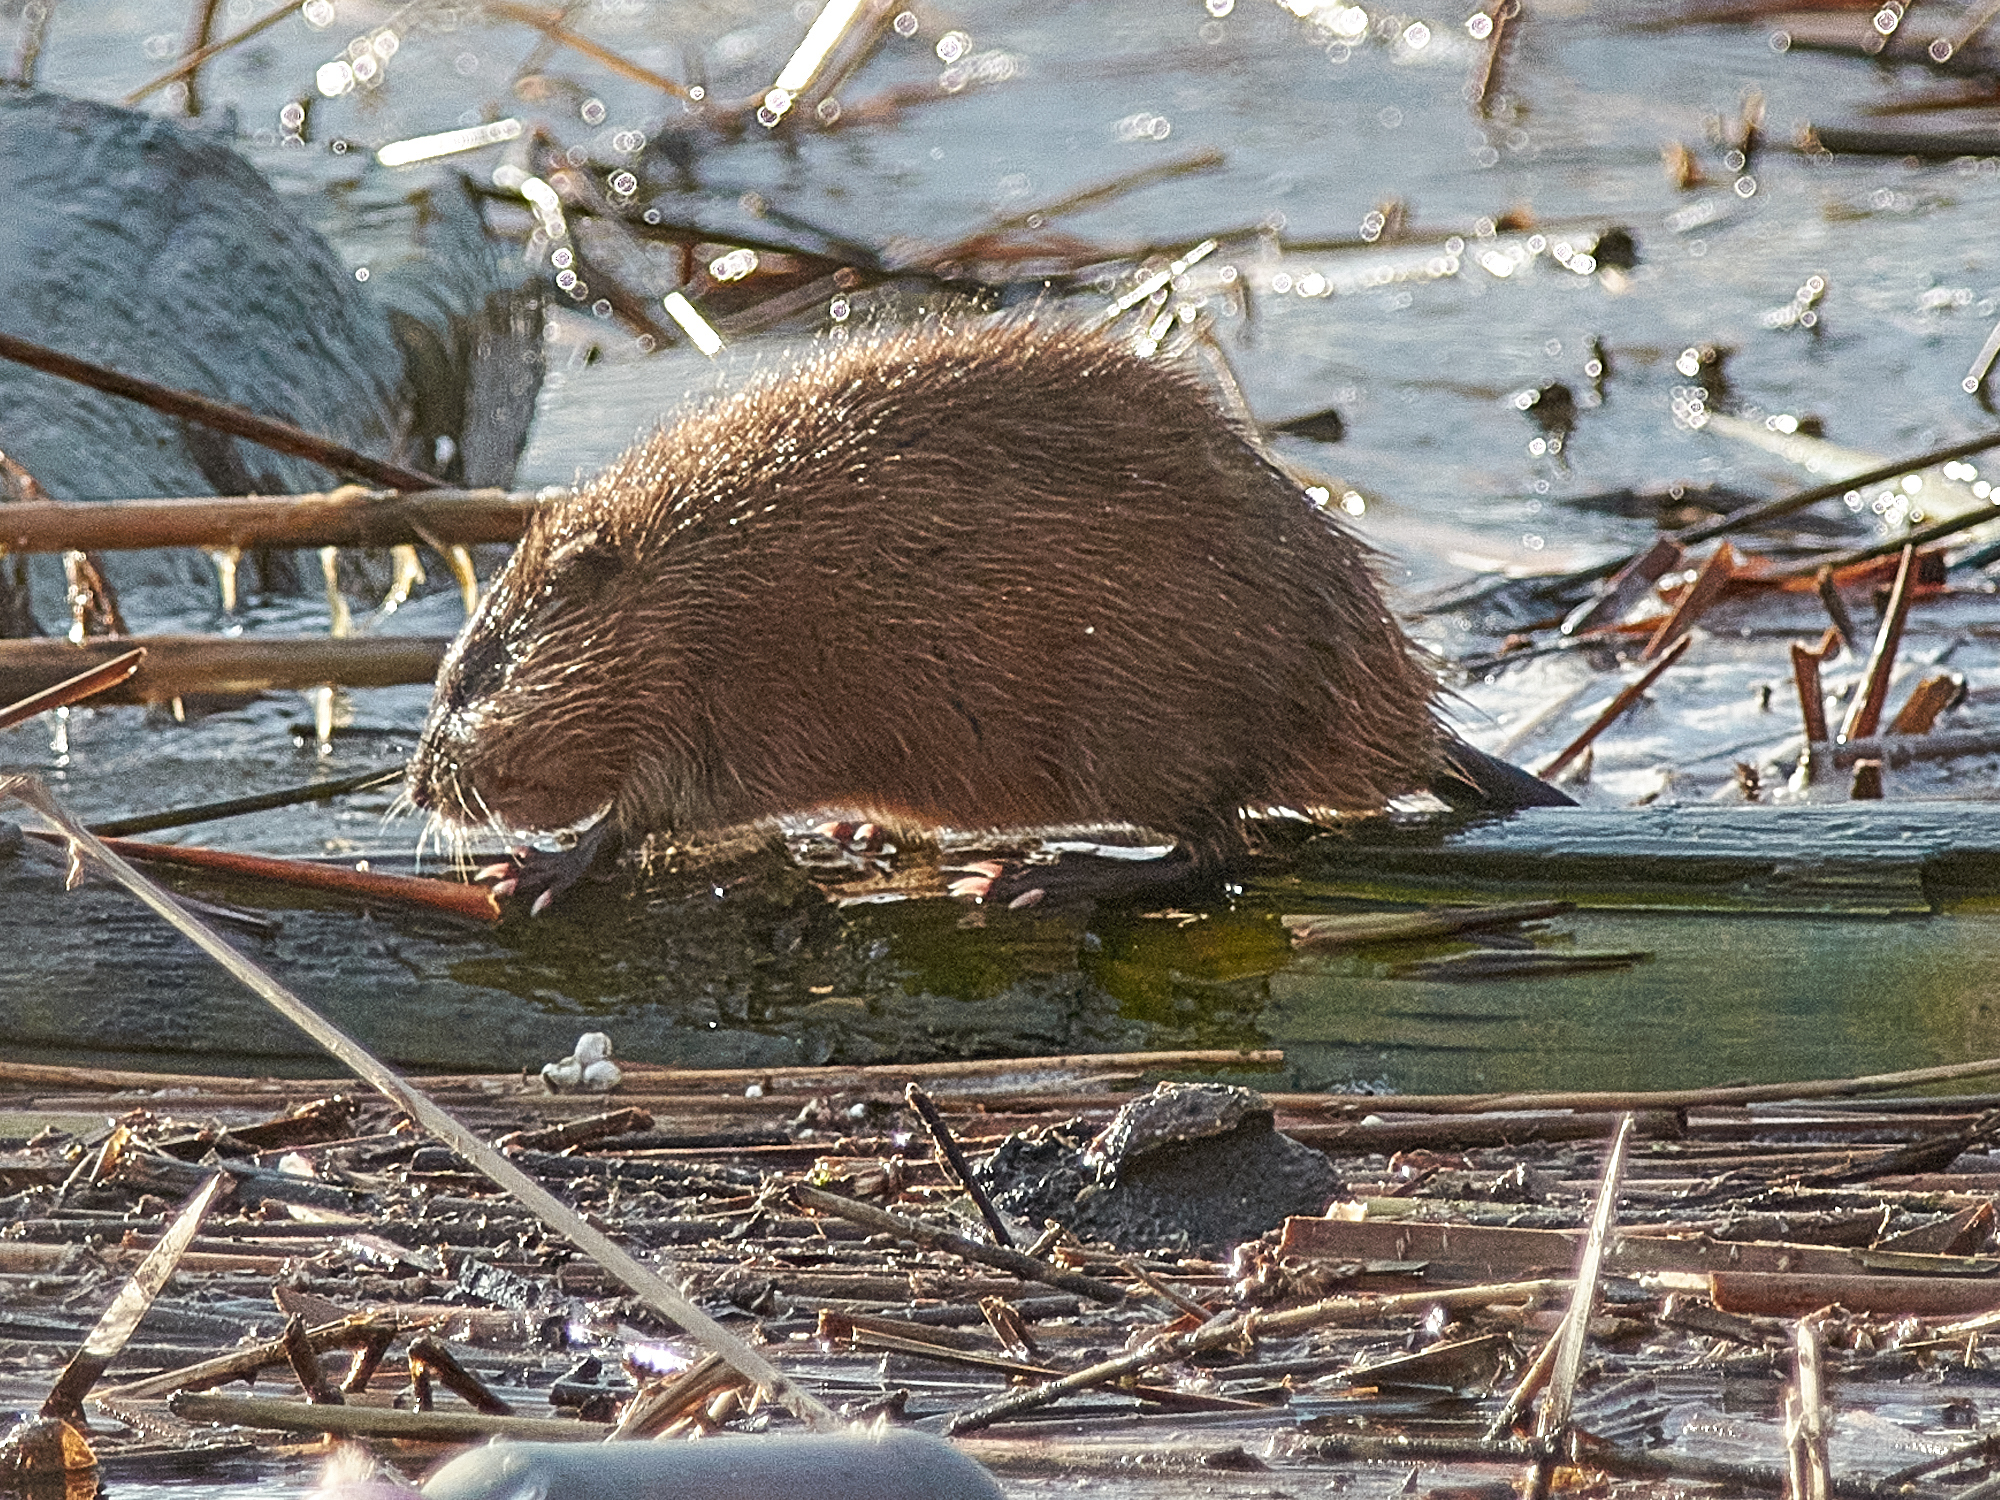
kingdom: Animalia
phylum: Chordata
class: Mammalia
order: Rodentia
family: Cricetidae
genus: Ondatra
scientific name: Ondatra zibethicus
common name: Muskrat
